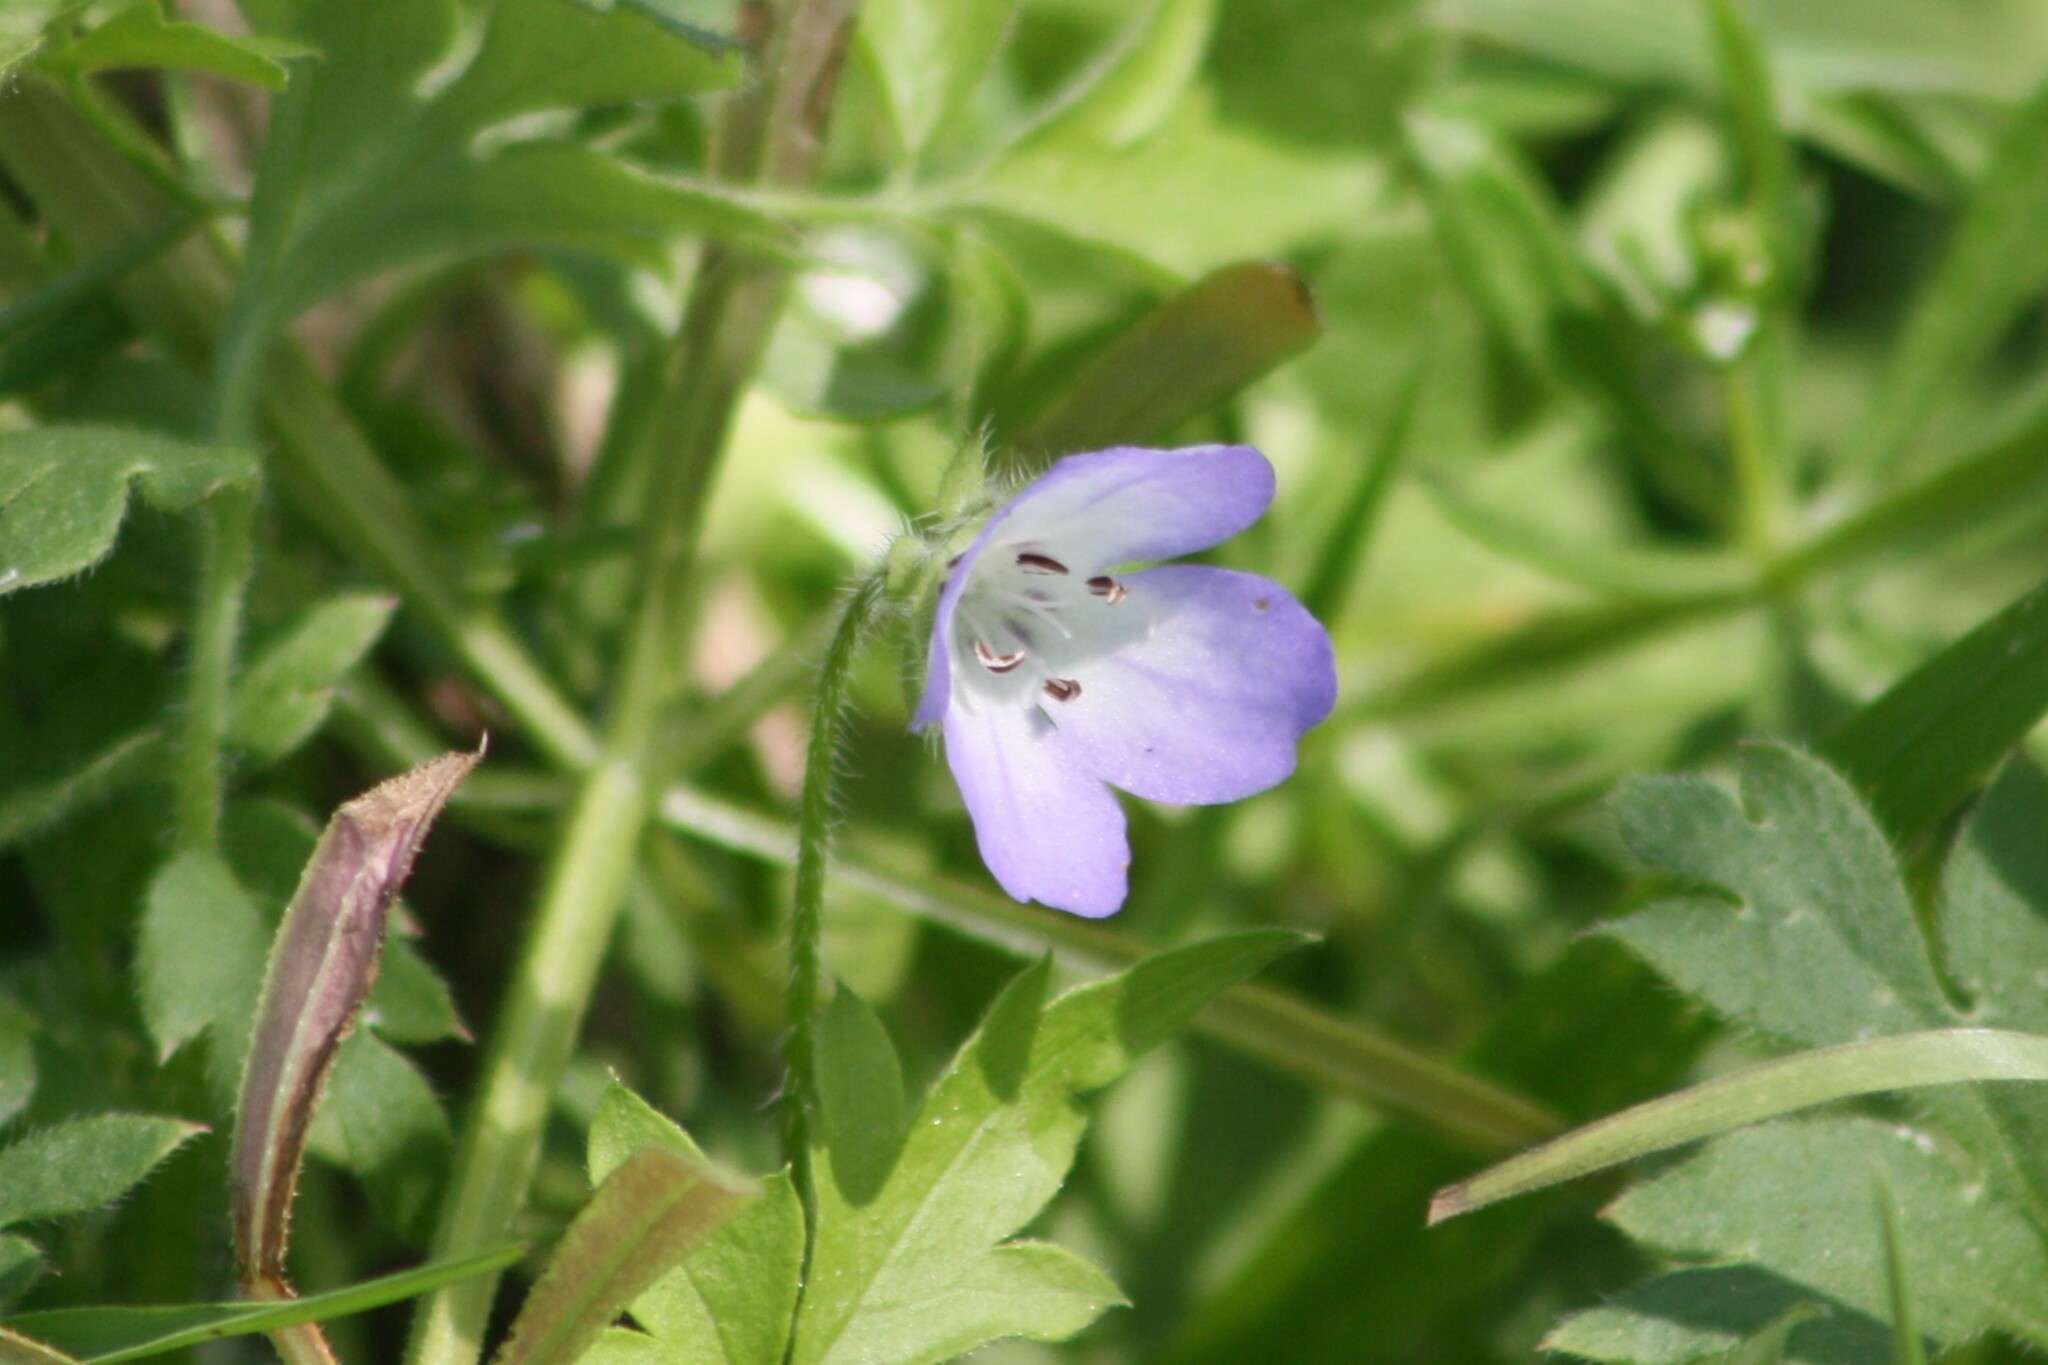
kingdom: Plantae
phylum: Tracheophyta
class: Magnoliopsida
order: Boraginales
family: Hydrophyllaceae
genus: Nemophila
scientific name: Nemophila phacelioides
